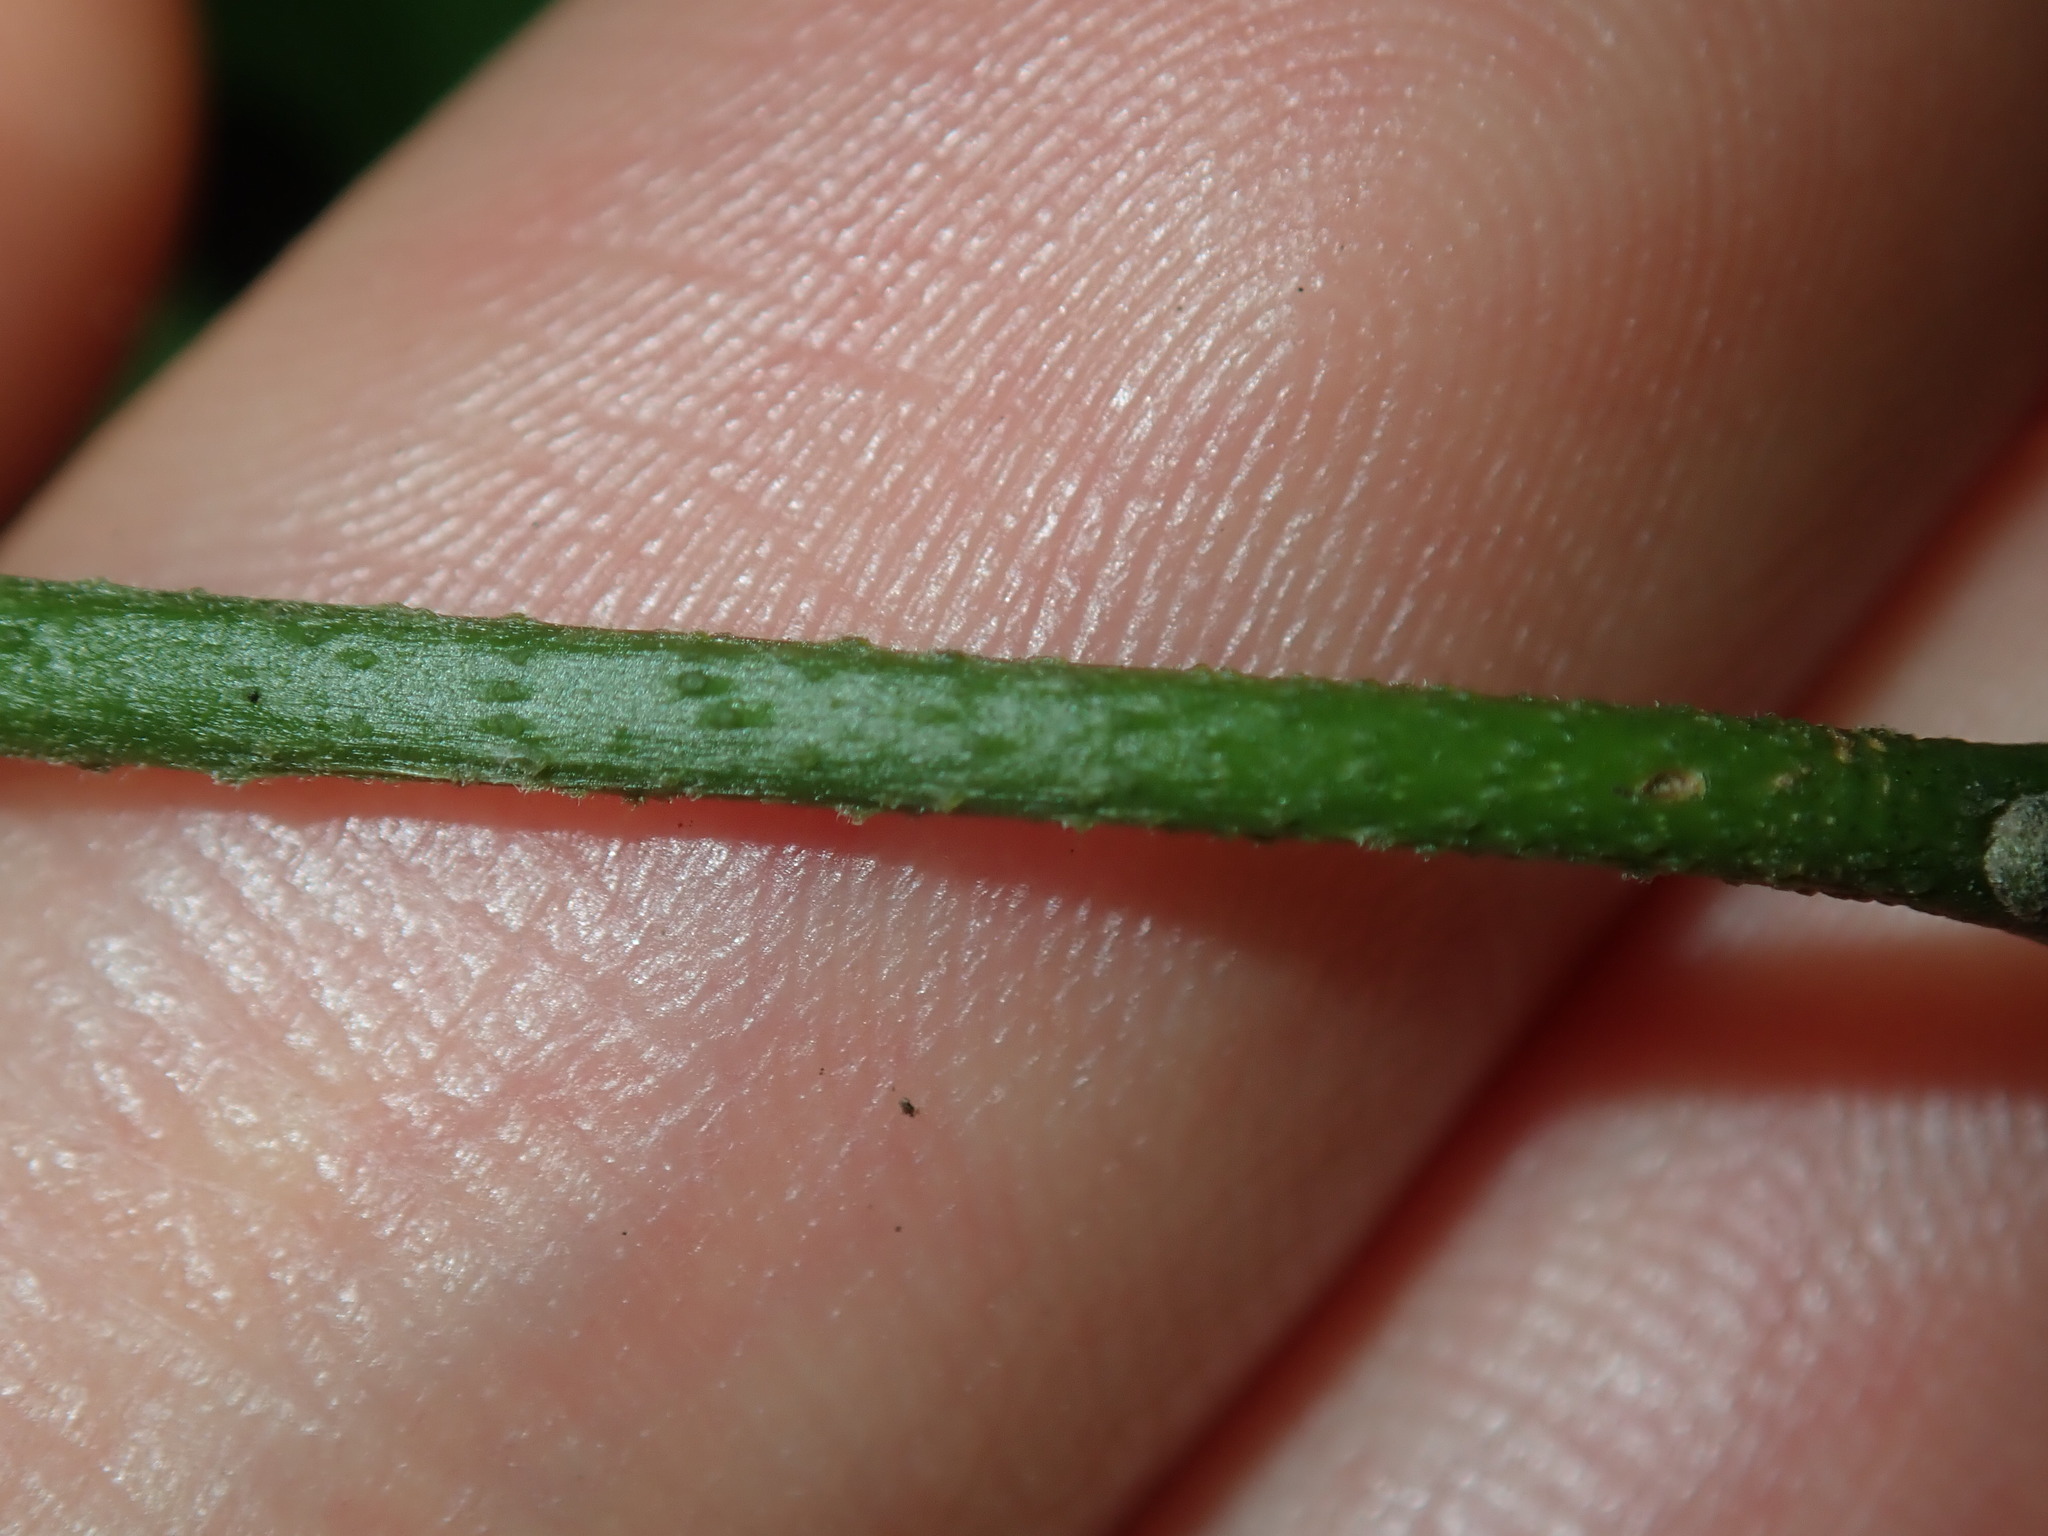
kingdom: Plantae
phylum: Tracheophyta
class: Magnoliopsida
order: Sapindales
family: Rutaceae
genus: Murraya
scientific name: Murraya paniculata
